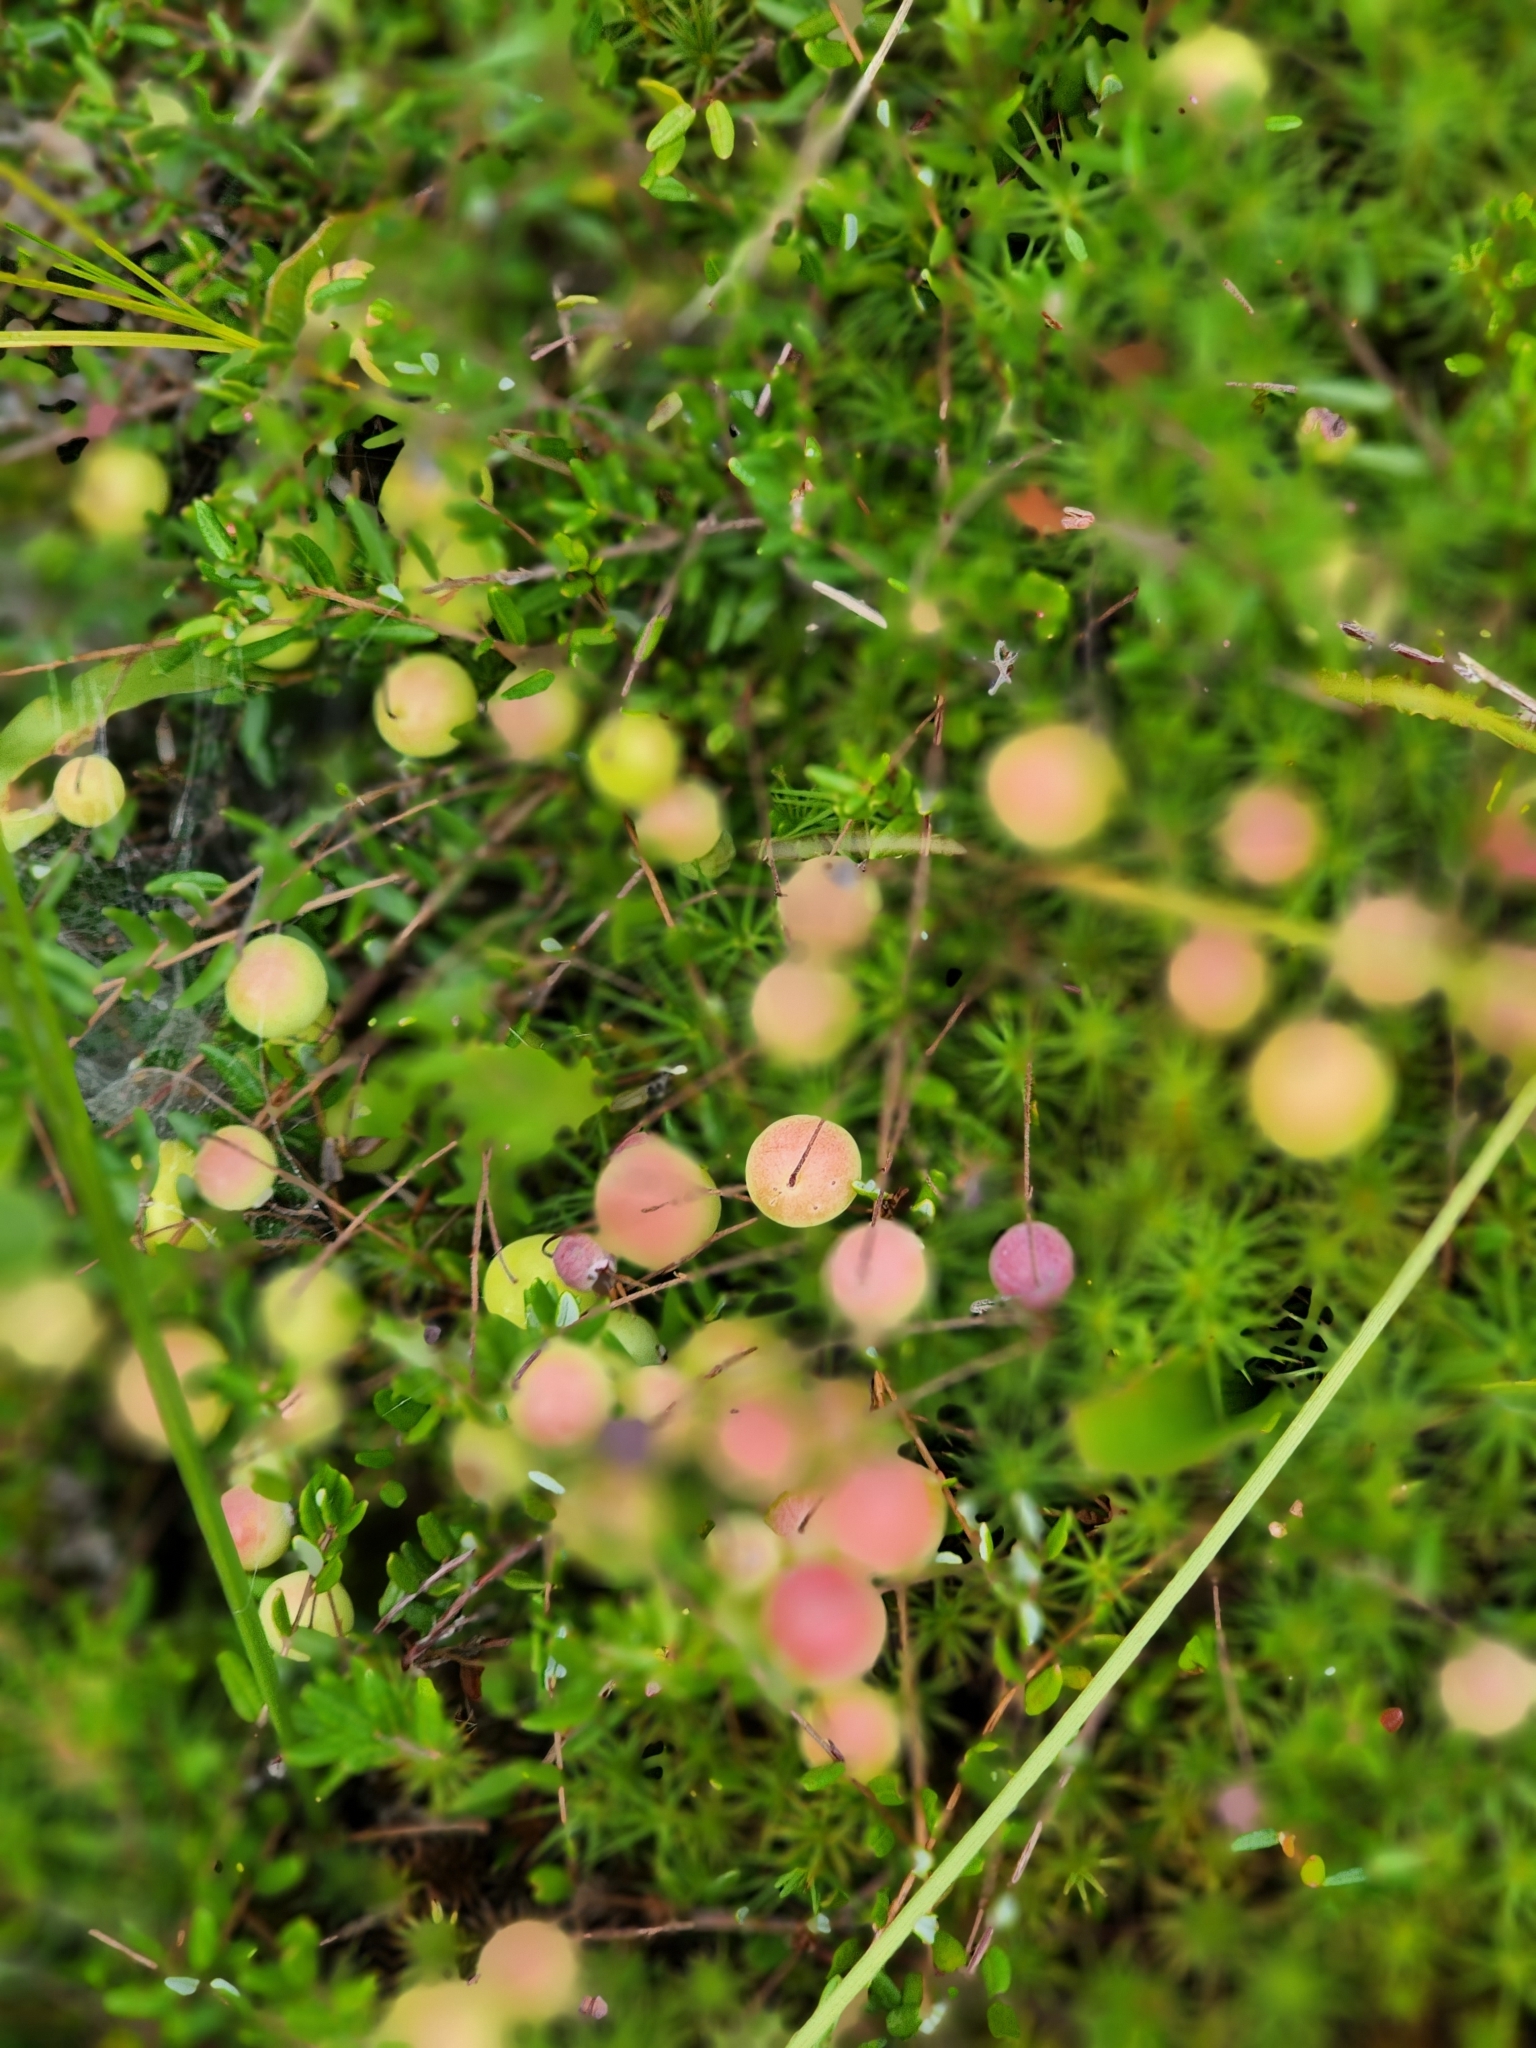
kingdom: Plantae
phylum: Tracheophyta
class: Magnoliopsida
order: Ericales
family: Ericaceae
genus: Vaccinium
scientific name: Vaccinium oxycoccos
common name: Cranberry
